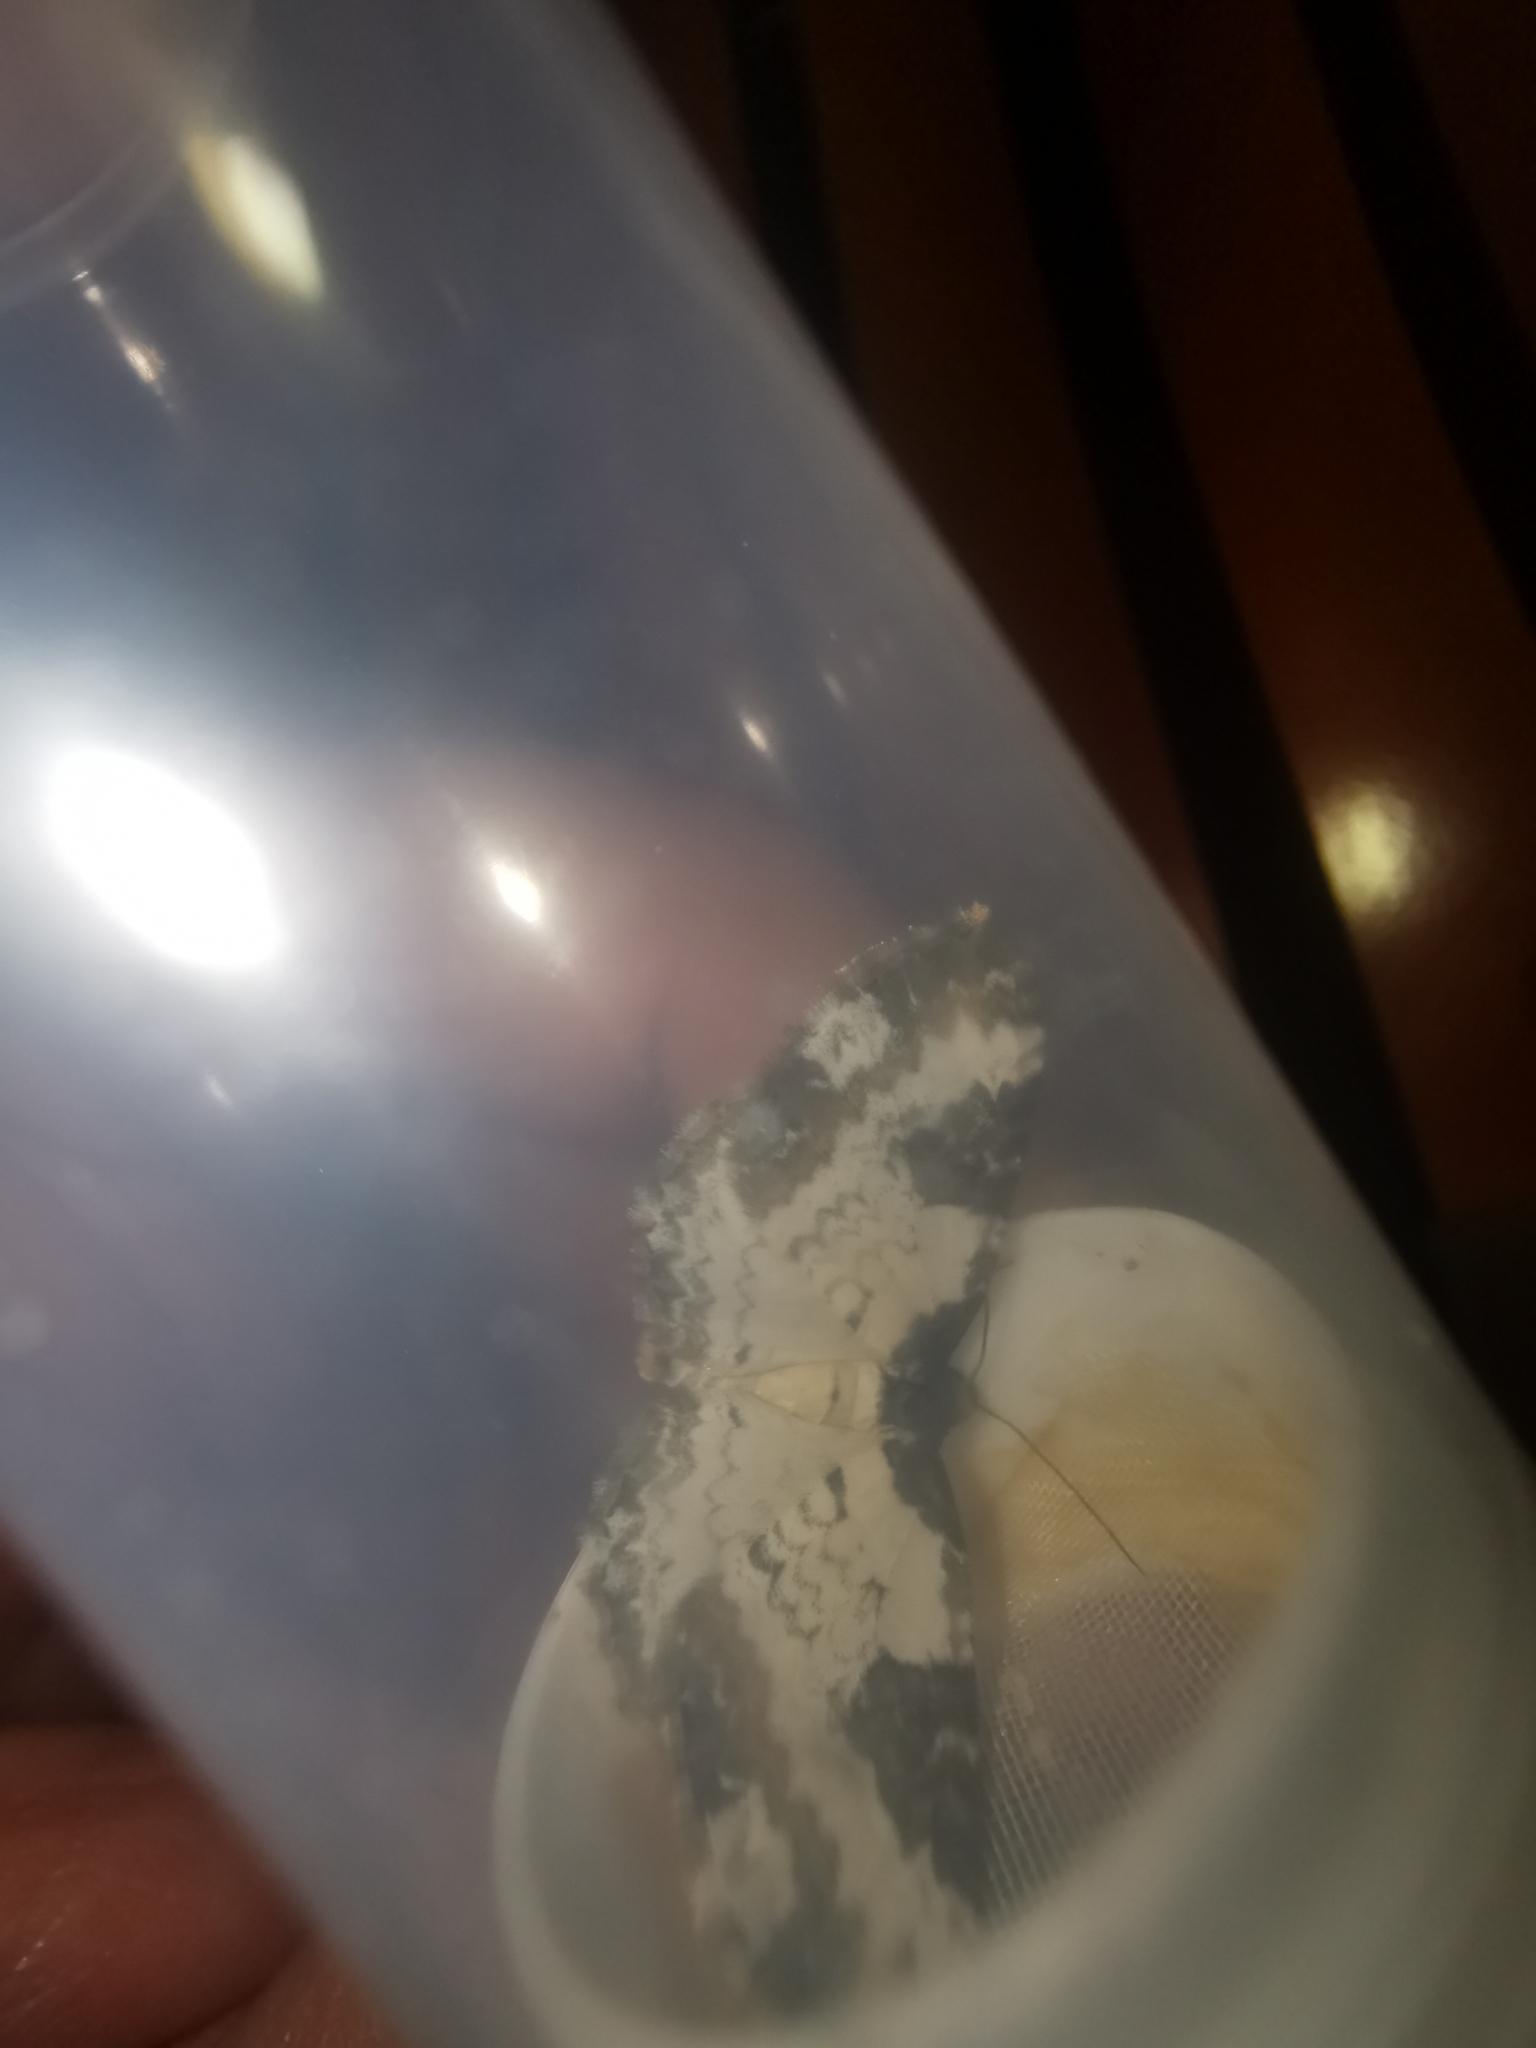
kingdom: Animalia
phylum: Arthropoda
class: Insecta
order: Lepidoptera
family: Geometridae
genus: Melanthia
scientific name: Melanthia procellata
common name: Pretty chalk carpet
